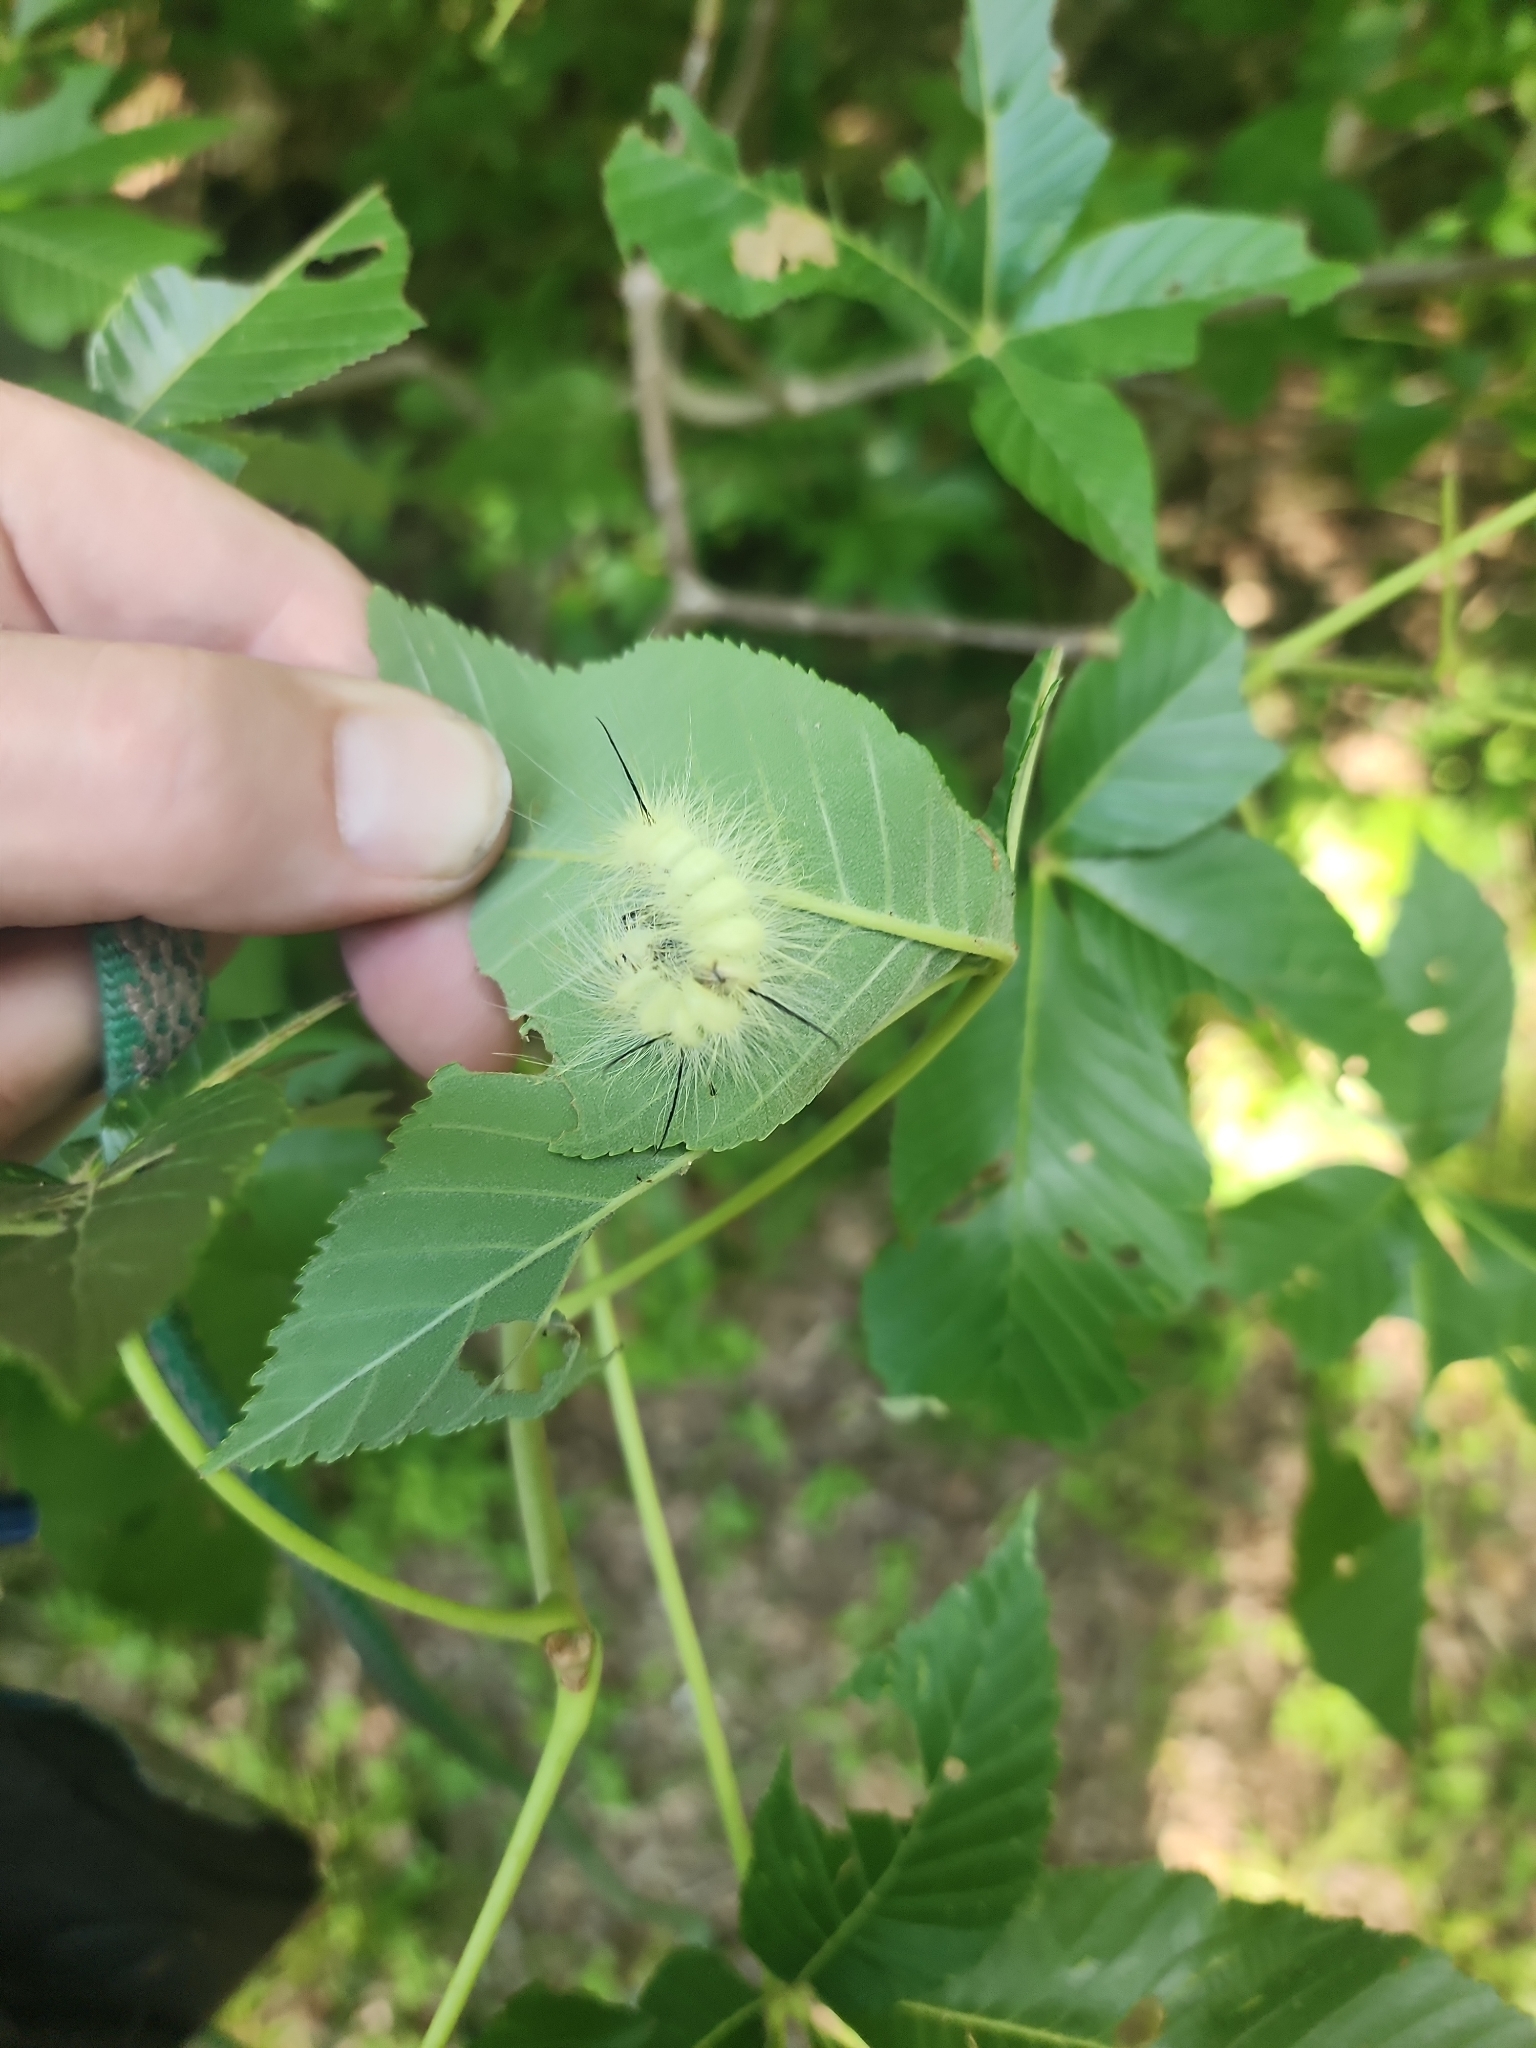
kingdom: Animalia
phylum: Arthropoda
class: Insecta
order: Lepidoptera
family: Noctuidae
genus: Acronicta
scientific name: Acronicta americana
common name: American dagger
